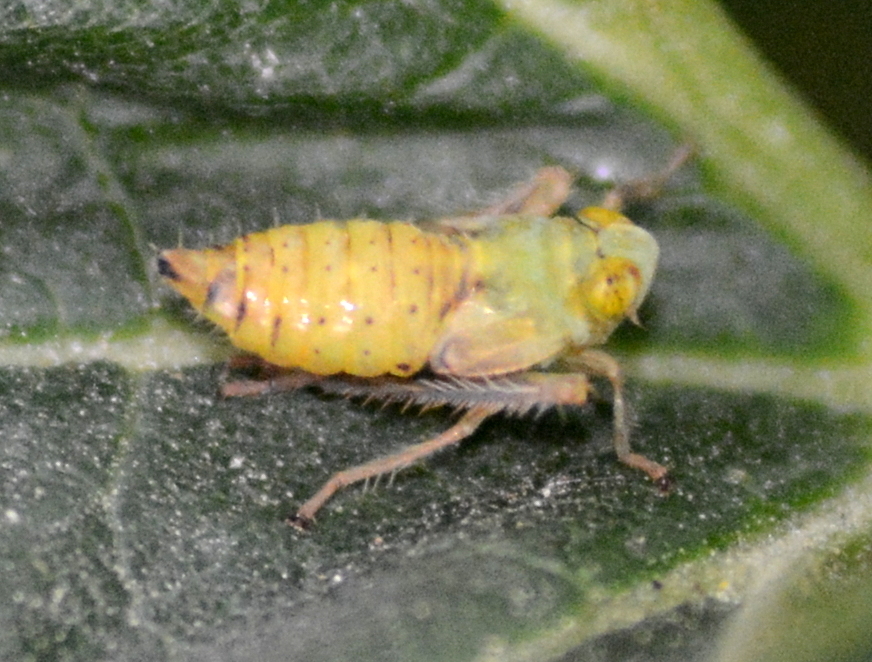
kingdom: Animalia
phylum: Arthropoda
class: Insecta
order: Hemiptera
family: Cicadellidae
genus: Jikradia
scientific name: Jikradia olitoria
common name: Coppery leafhopper
